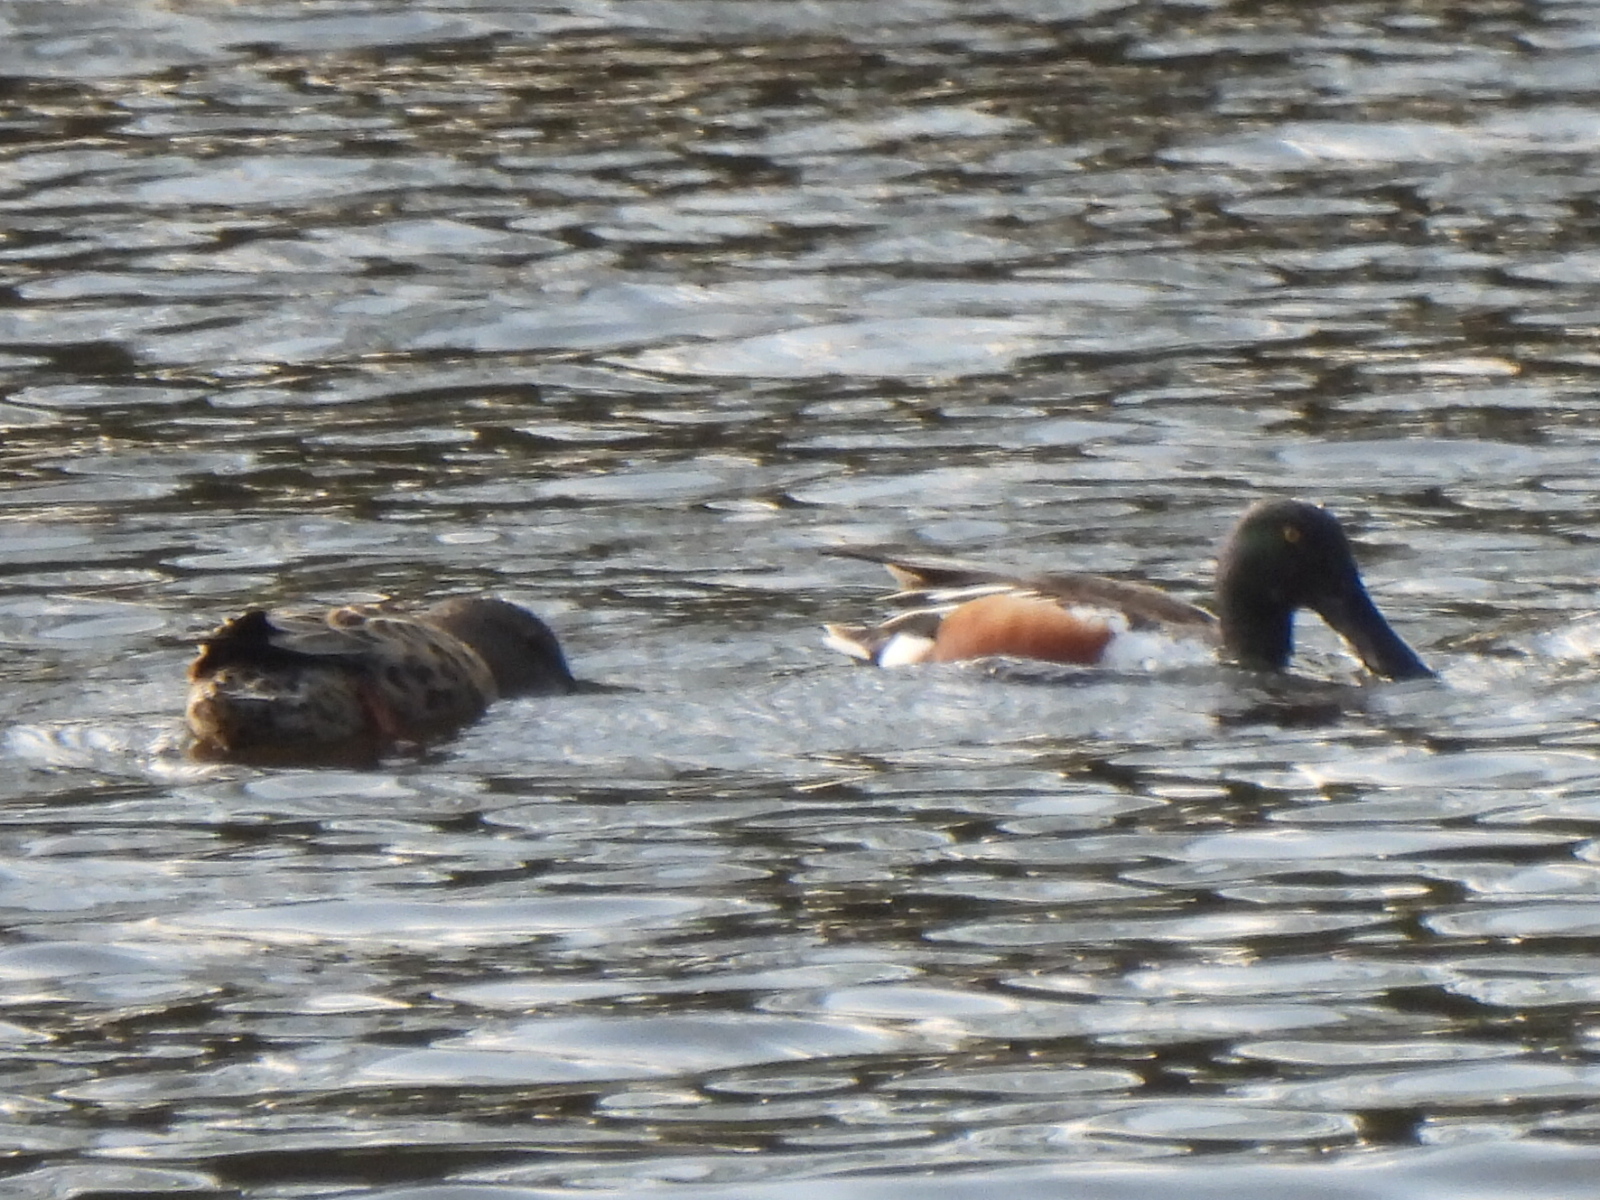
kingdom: Animalia
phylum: Chordata
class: Aves
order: Anseriformes
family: Anatidae
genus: Spatula
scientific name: Spatula clypeata
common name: Northern shoveler
